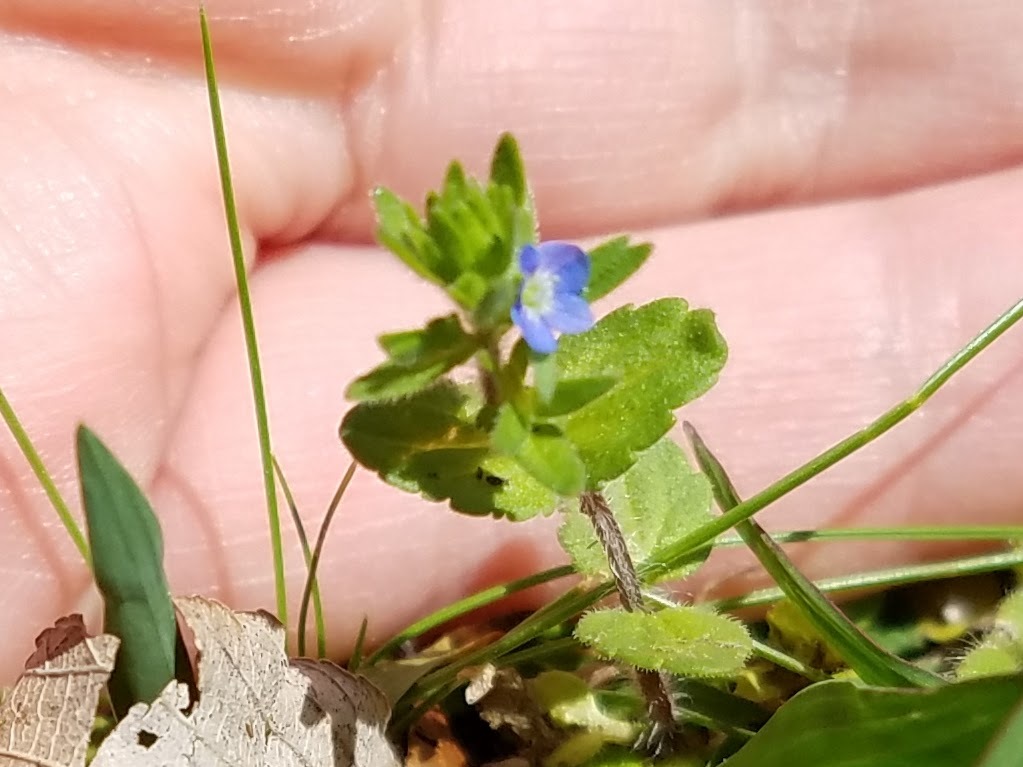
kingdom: Plantae
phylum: Tracheophyta
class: Magnoliopsida
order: Lamiales
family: Plantaginaceae
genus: Veronica
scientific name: Veronica arvensis
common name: Corn speedwell
